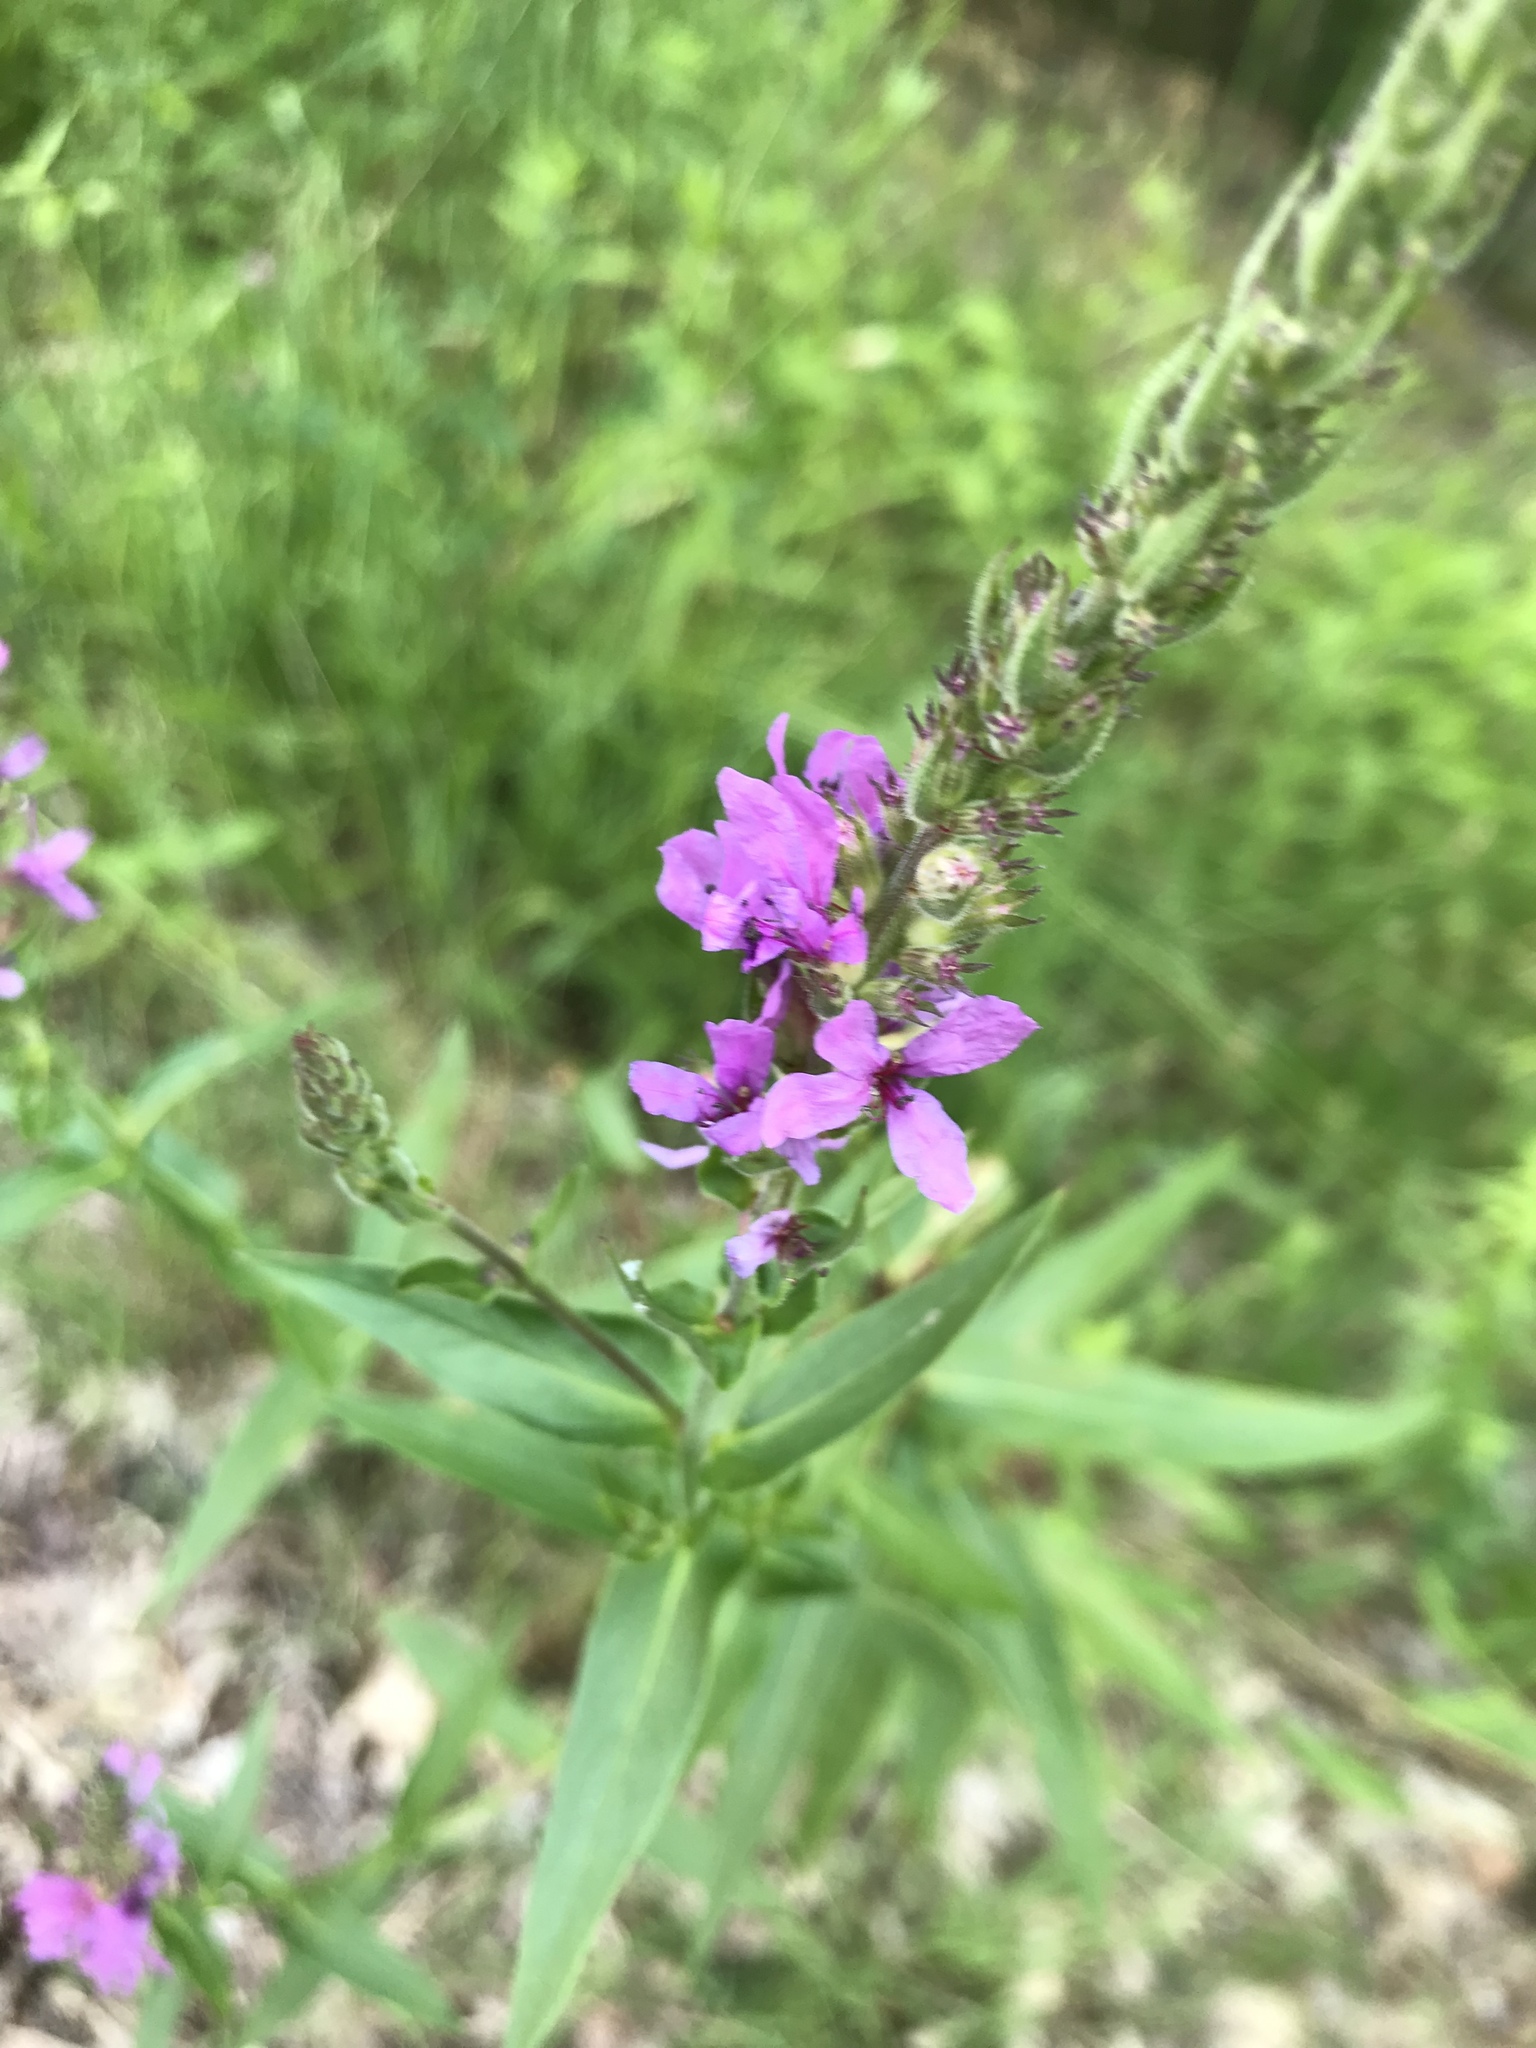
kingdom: Plantae
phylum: Tracheophyta
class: Magnoliopsida
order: Myrtales
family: Lythraceae
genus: Lythrum
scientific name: Lythrum salicaria
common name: Purple loosestrife
